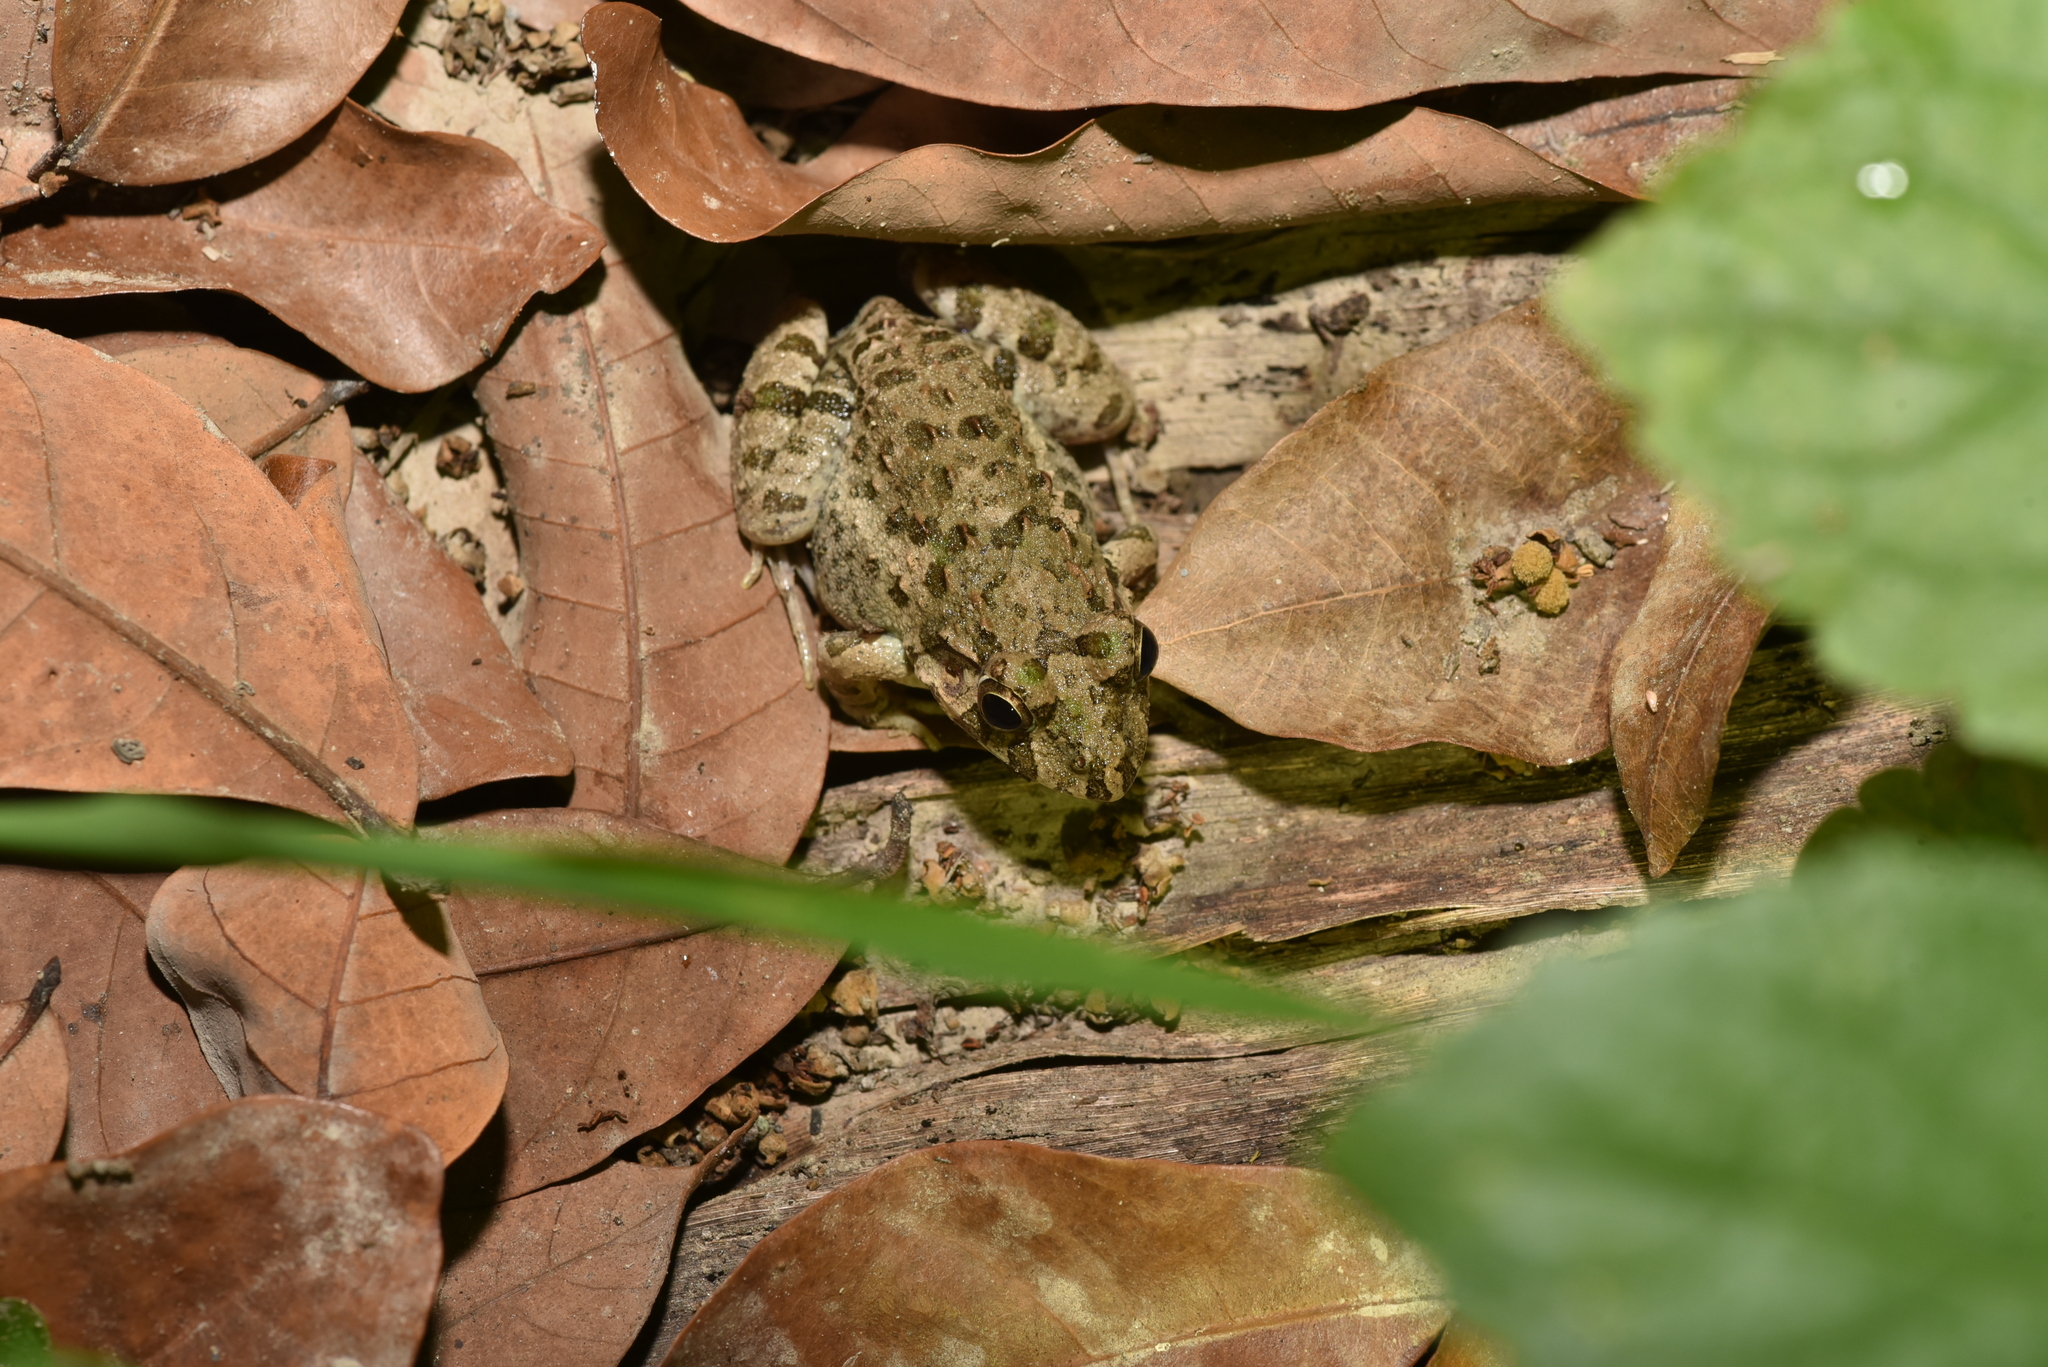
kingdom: Animalia
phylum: Chordata
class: Amphibia
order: Anura
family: Dicroglossidae
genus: Fejervarya
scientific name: Fejervarya limnocharis
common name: Asian grass frog/common pond frog/field frog/grass frog/indian rice frog
